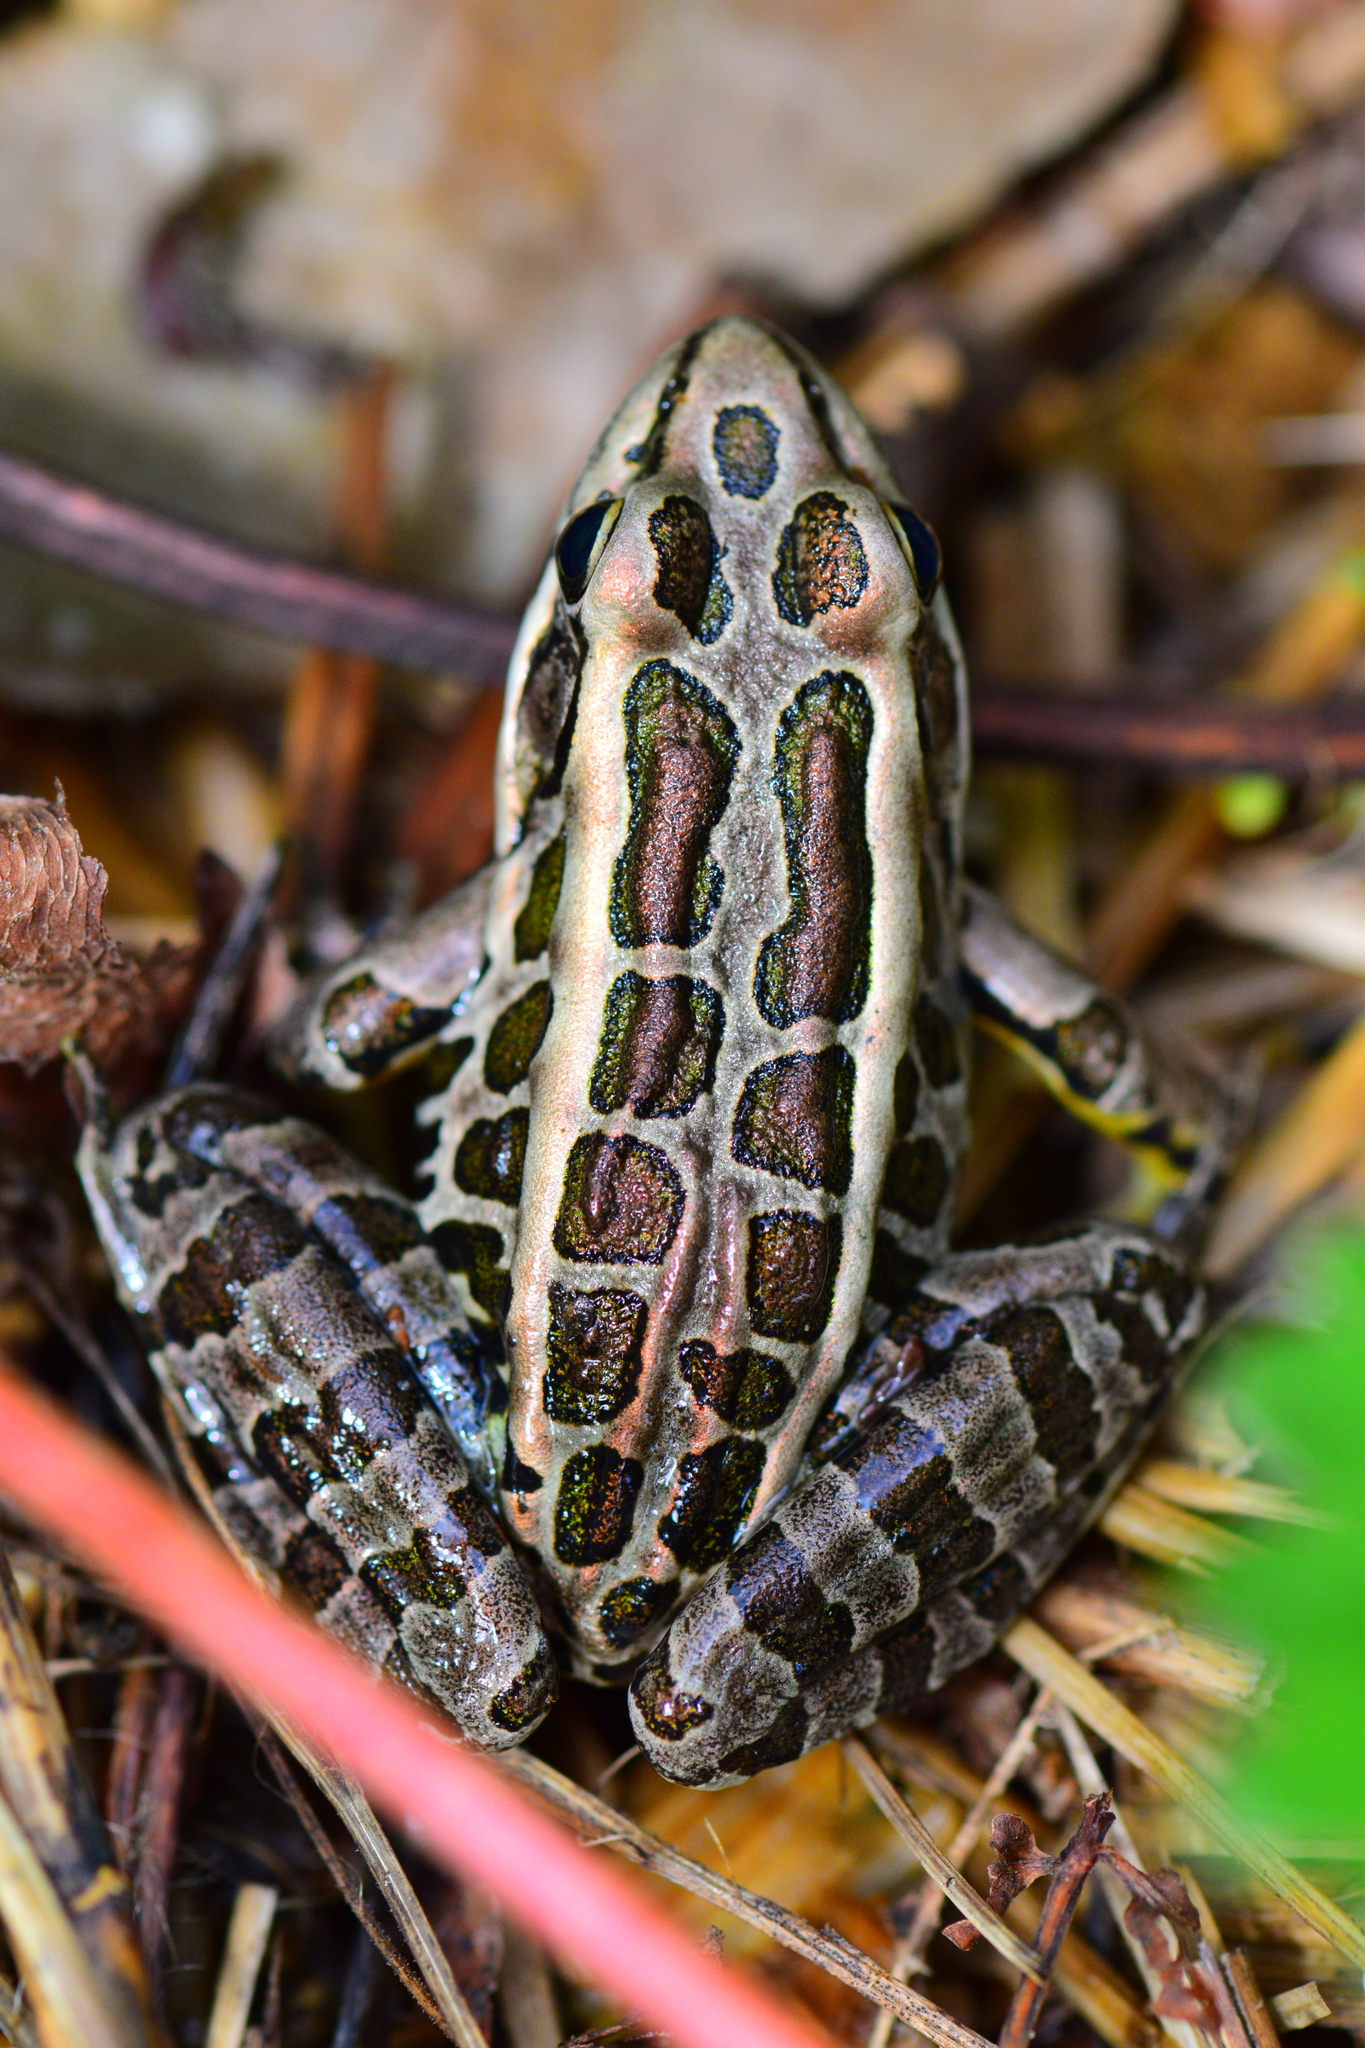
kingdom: Animalia
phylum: Chordata
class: Amphibia
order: Anura
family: Ranidae
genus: Lithobates
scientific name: Lithobates palustris
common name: Pickerel frog
